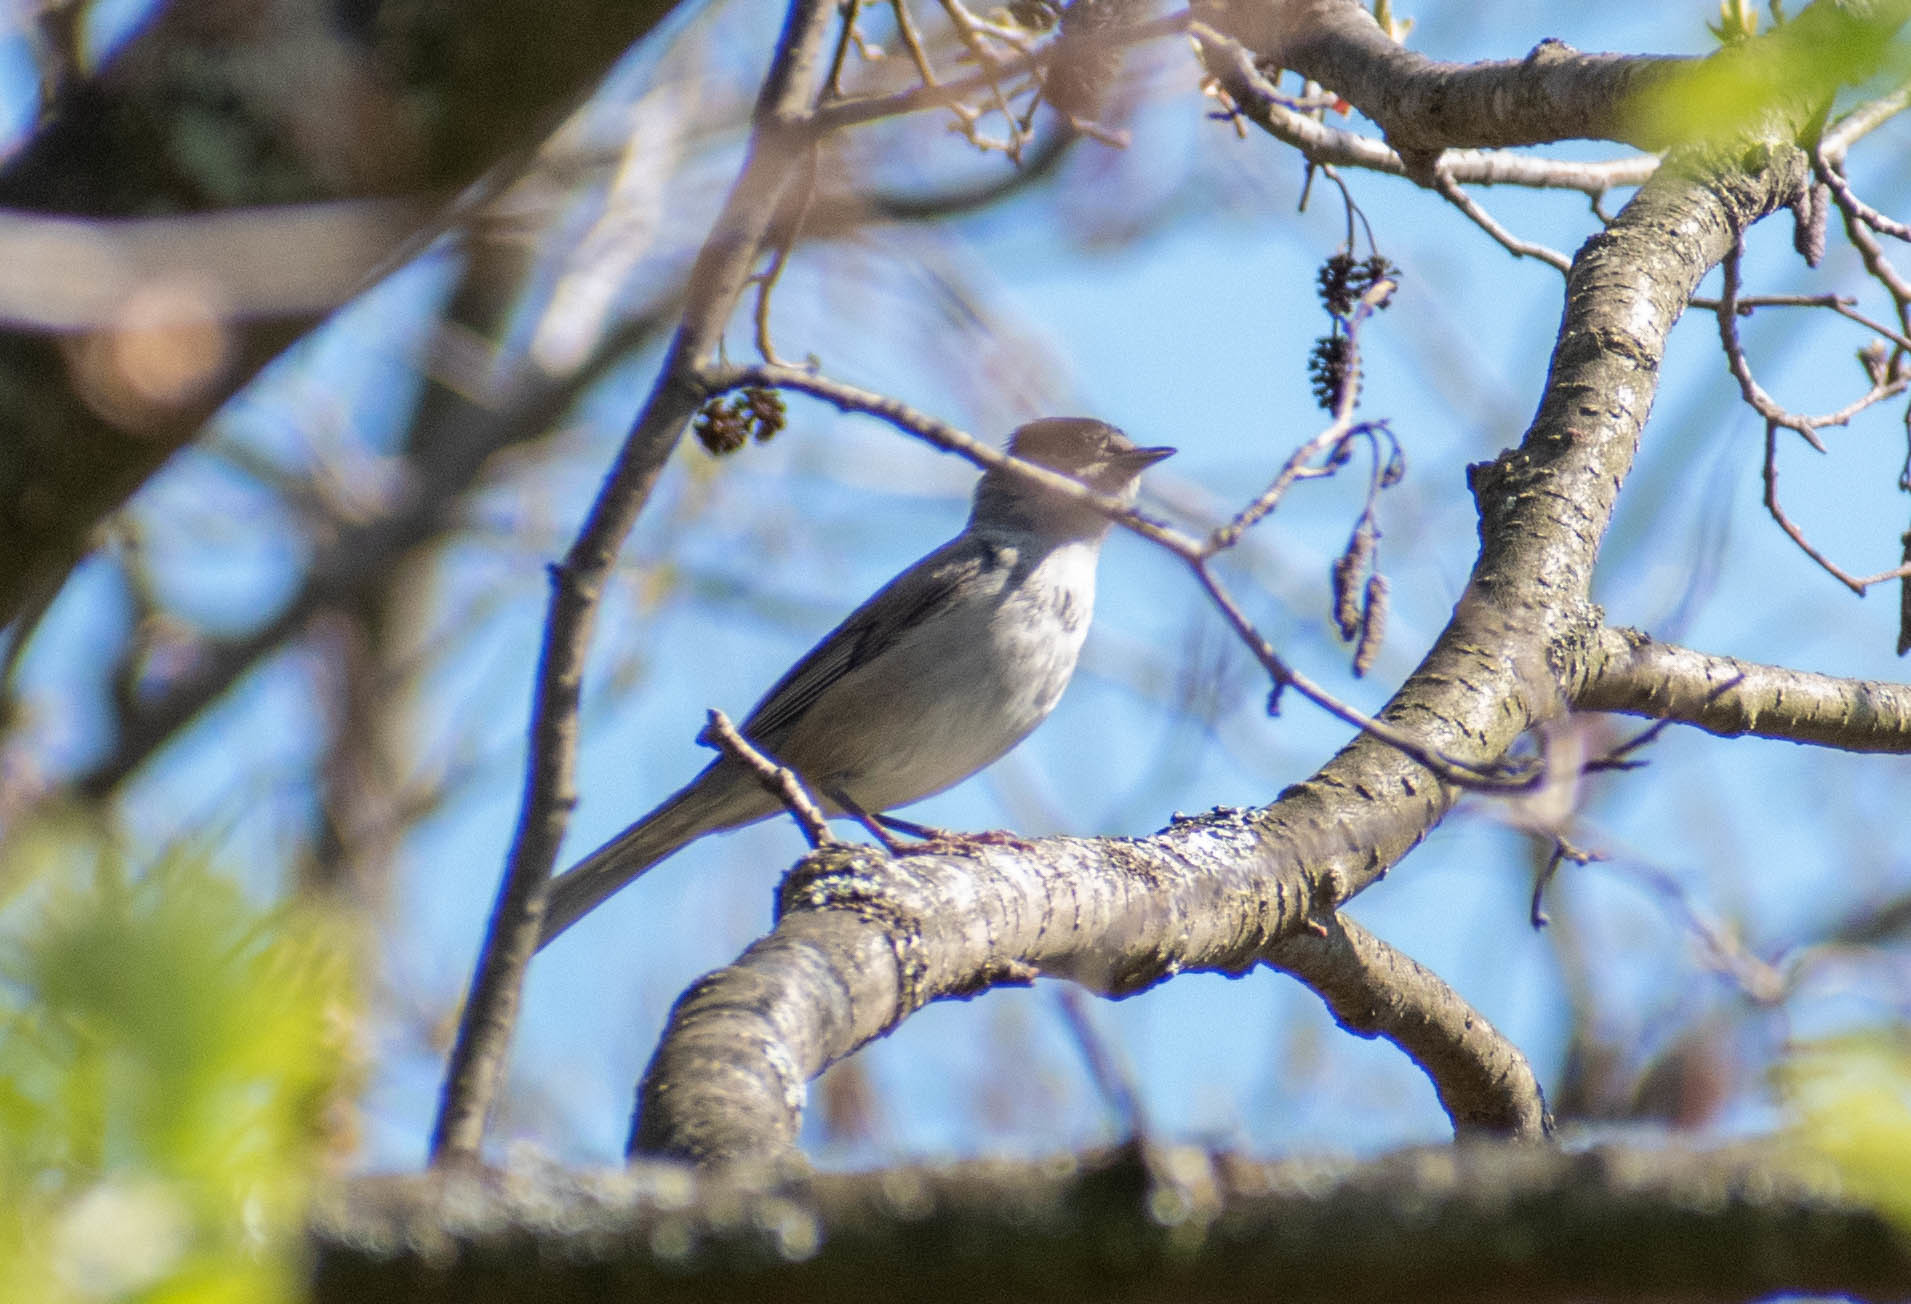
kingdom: Animalia
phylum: Chordata
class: Aves
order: Passeriformes
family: Sylviidae
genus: Sylvia
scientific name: Sylvia atricapilla
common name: Eurasian blackcap
